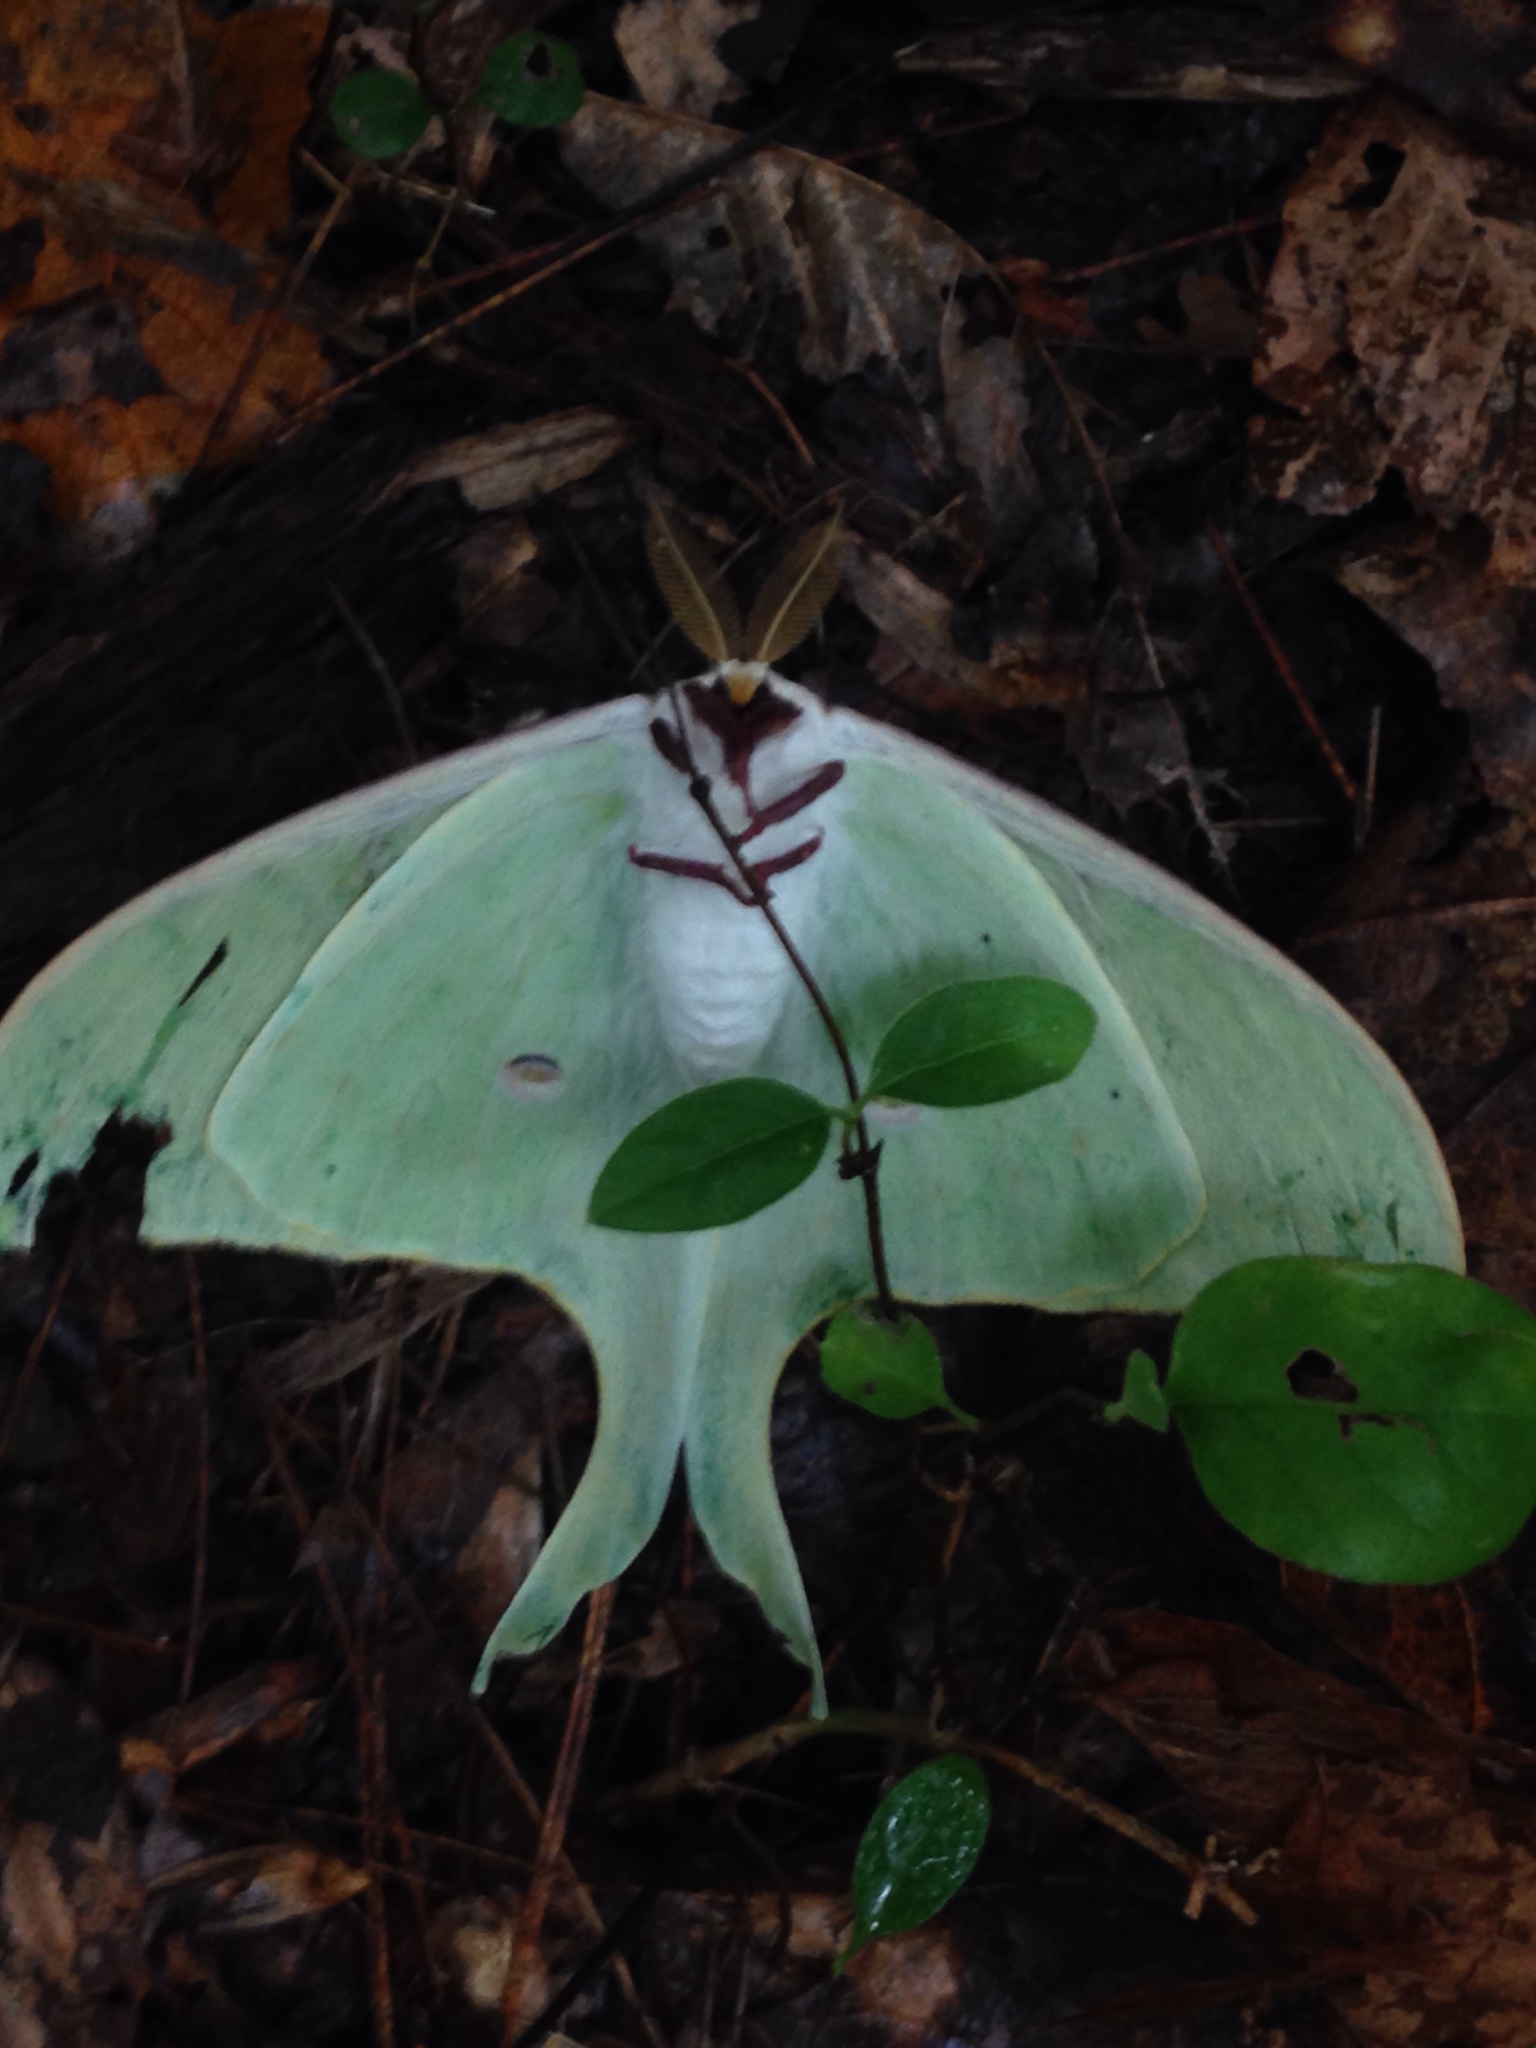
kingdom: Animalia
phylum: Arthropoda
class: Insecta
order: Lepidoptera
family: Saturniidae
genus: Actias
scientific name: Actias luna
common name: Luna moth
